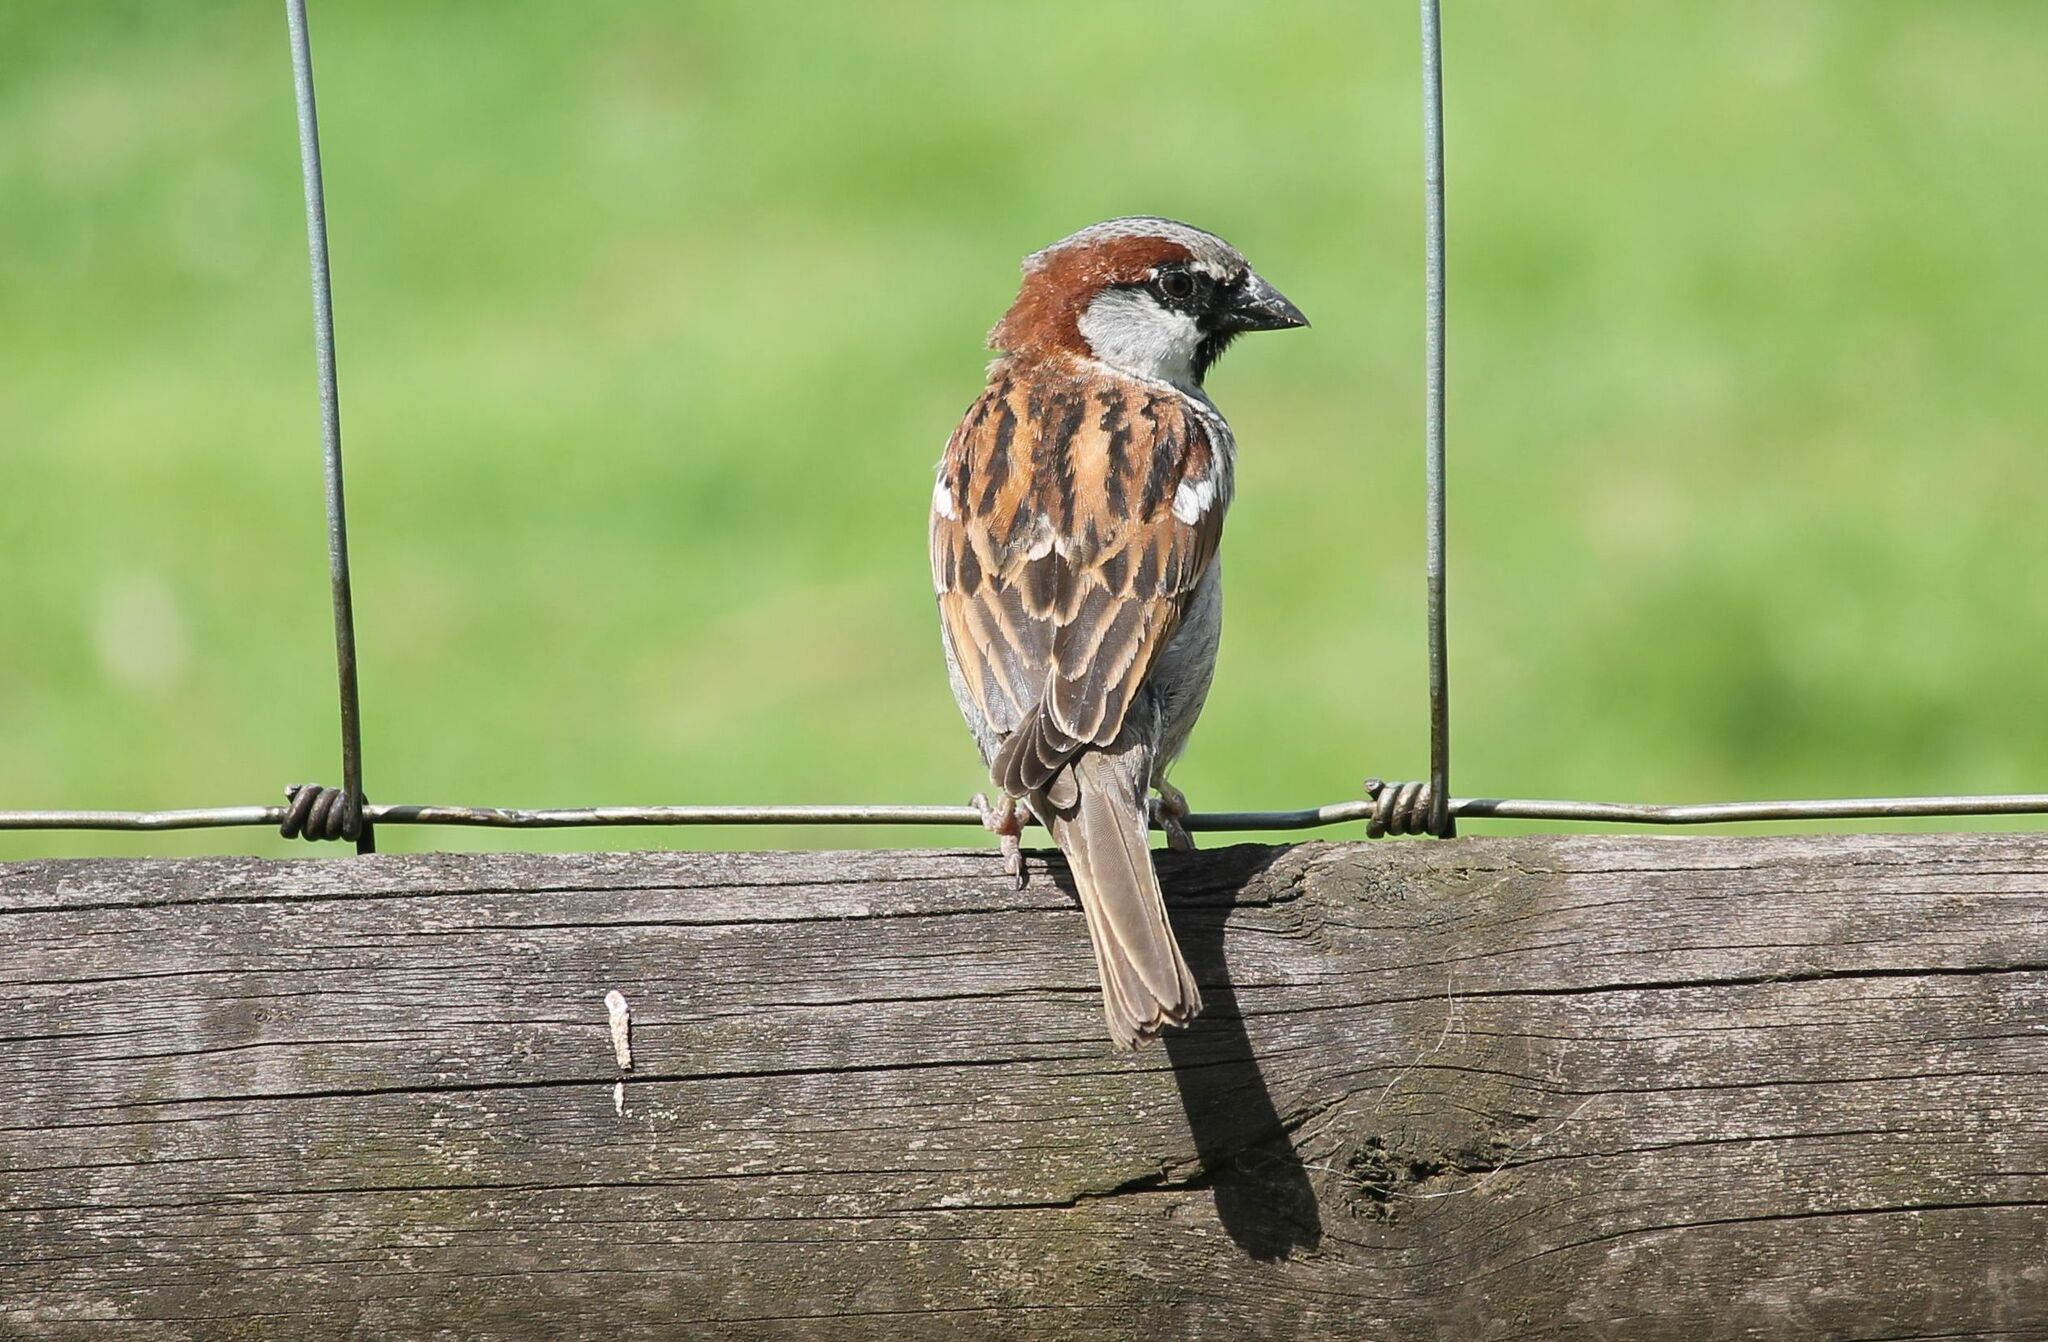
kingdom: Animalia
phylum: Chordata
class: Aves
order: Passeriformes
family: Passeridae
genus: Passer
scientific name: Passer domesticus
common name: House sparrow
